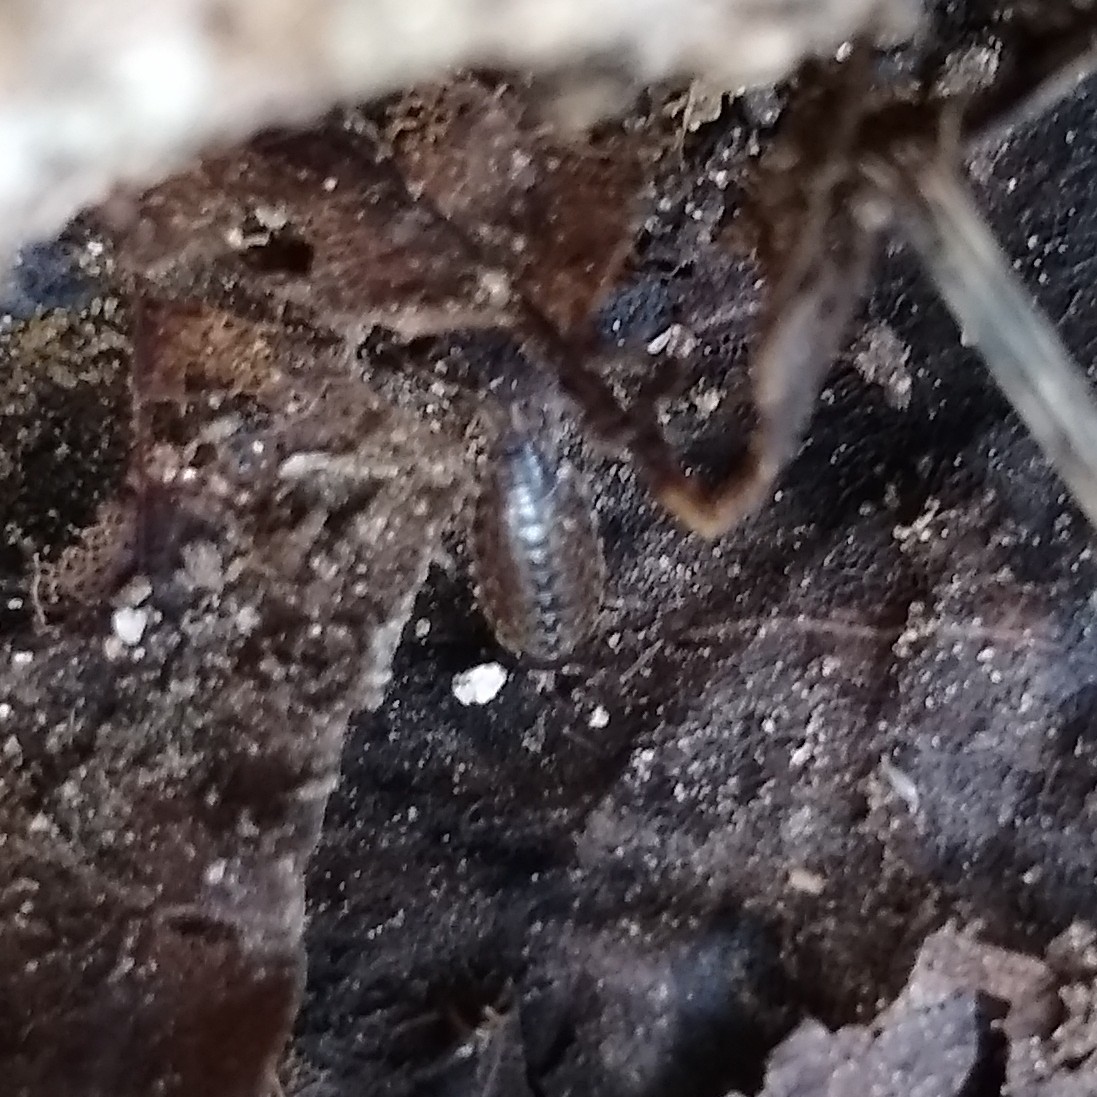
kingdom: Animalia
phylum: Arthropoda
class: Malacostraca
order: Isopoda
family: Philosciidae
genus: Philoscia
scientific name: Philoscia muscorum
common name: Common striped woodlouse
